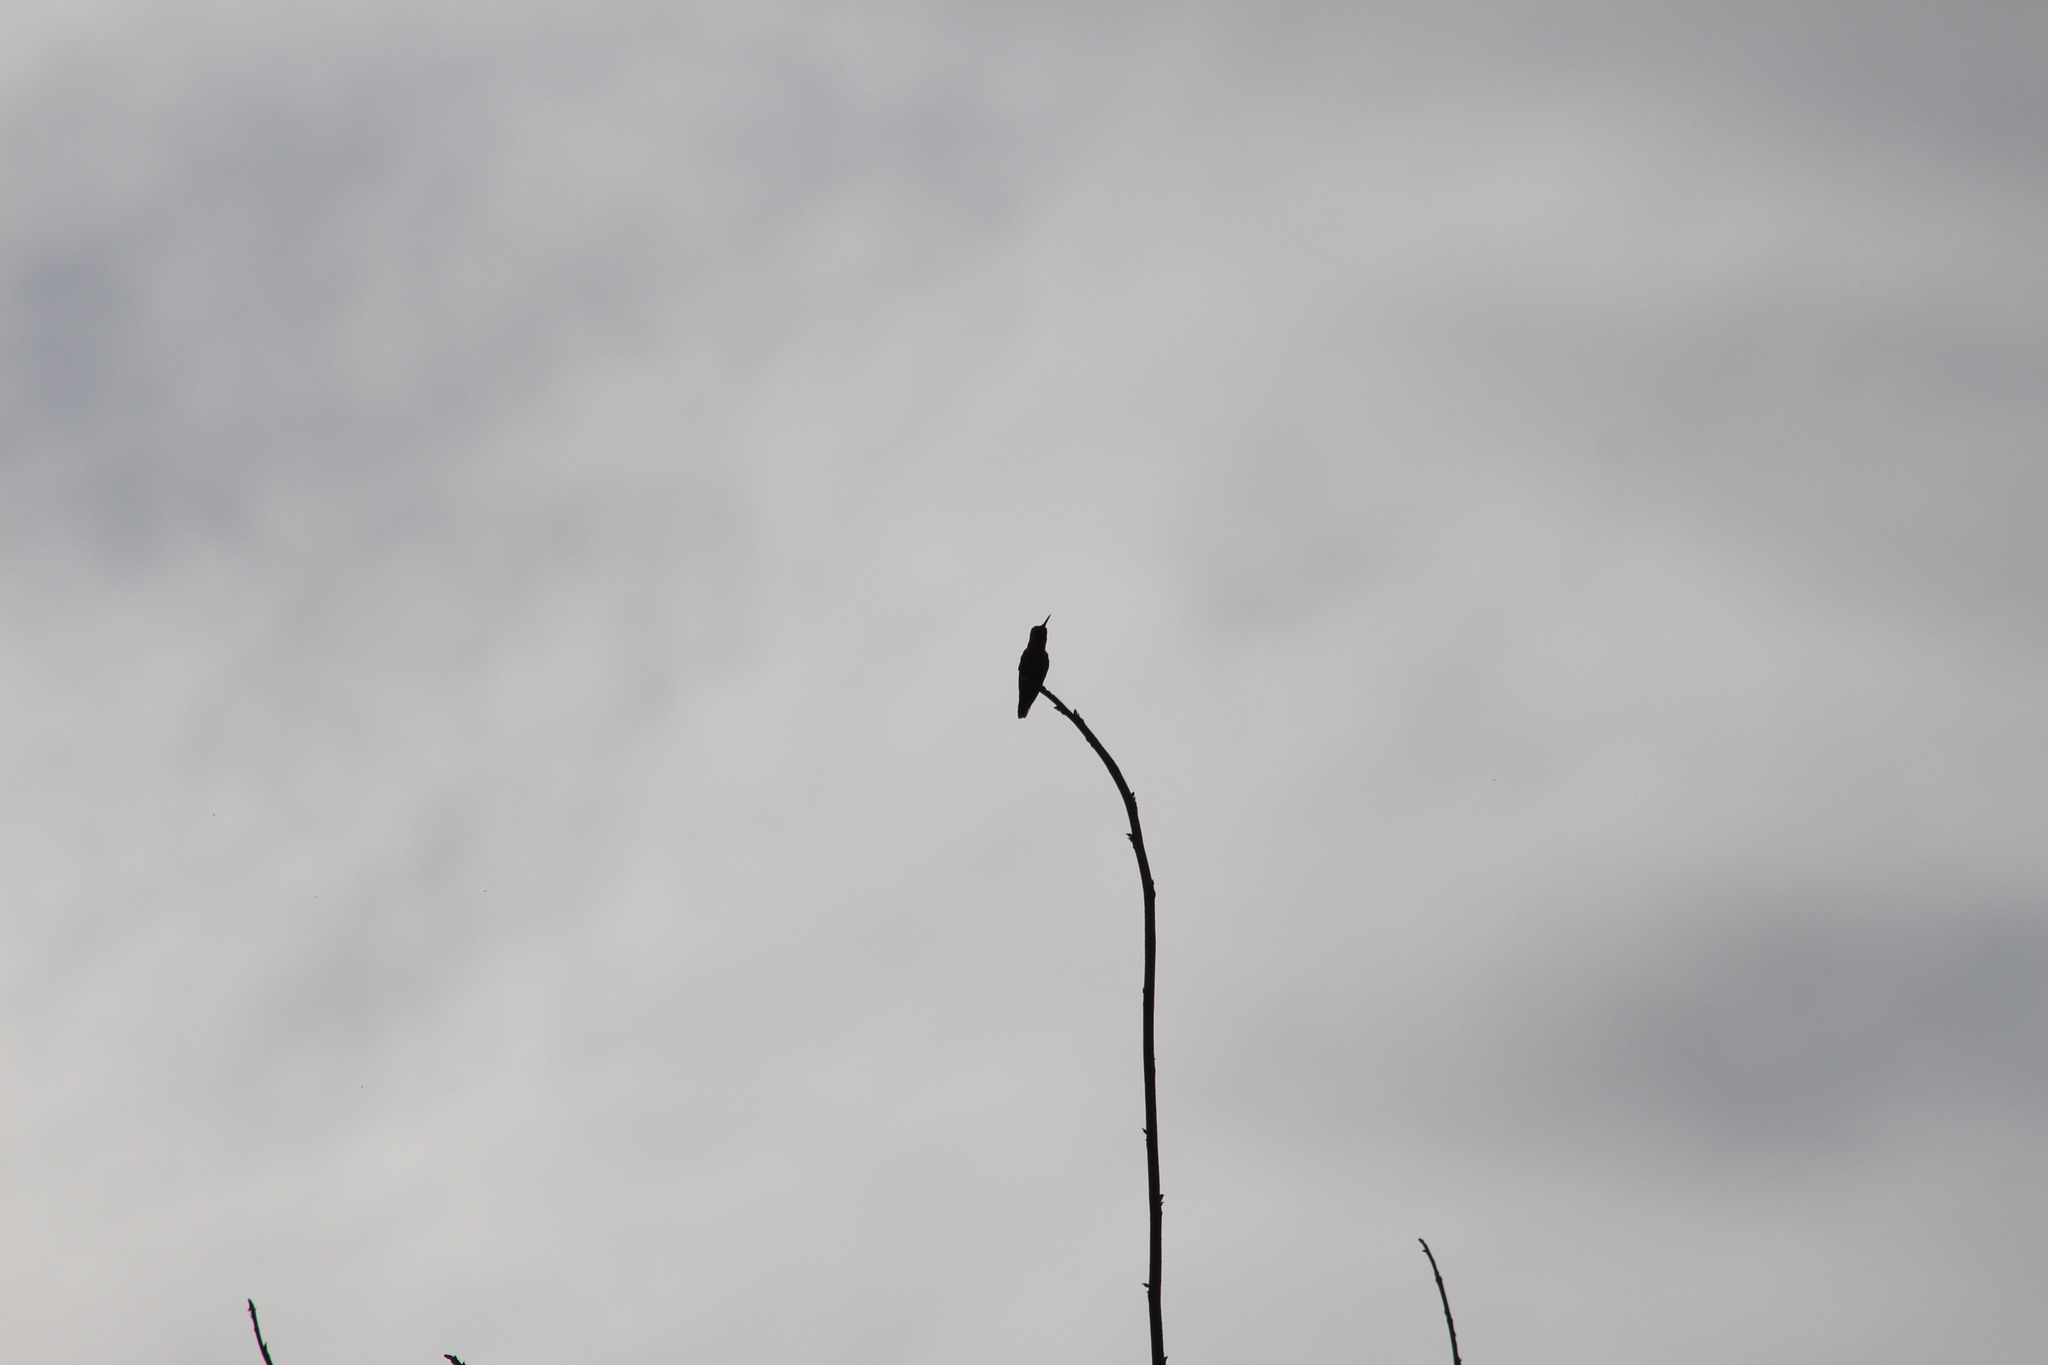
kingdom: Animalia
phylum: Chordata
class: Aves
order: Apodiformes
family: Trochilidae
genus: Calypte
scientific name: Calypte anna
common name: Anna's hummingbird
